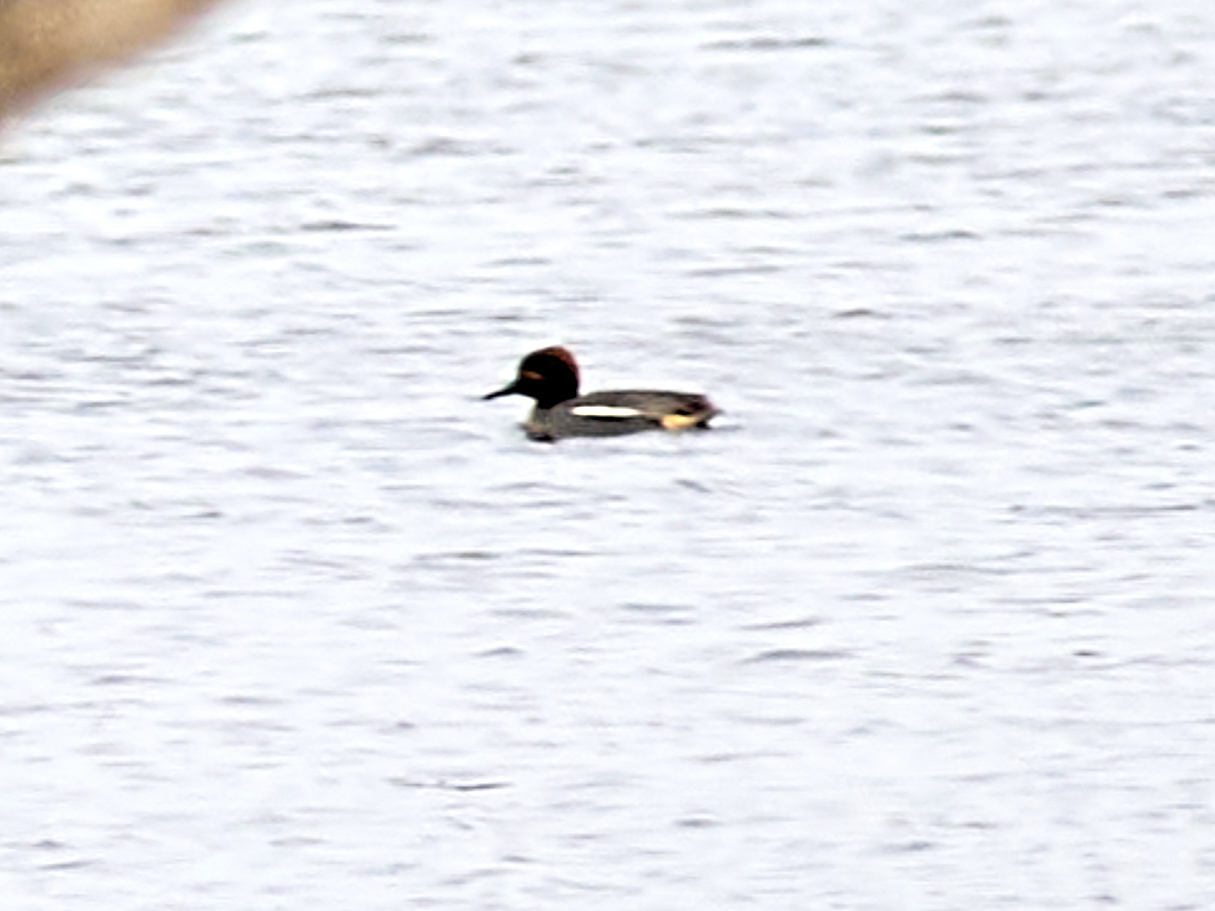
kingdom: Animalia
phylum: Chordata
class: Aves
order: Anseriformes
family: Anatidae
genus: Anas
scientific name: Anas crecca
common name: Eurasian teal
